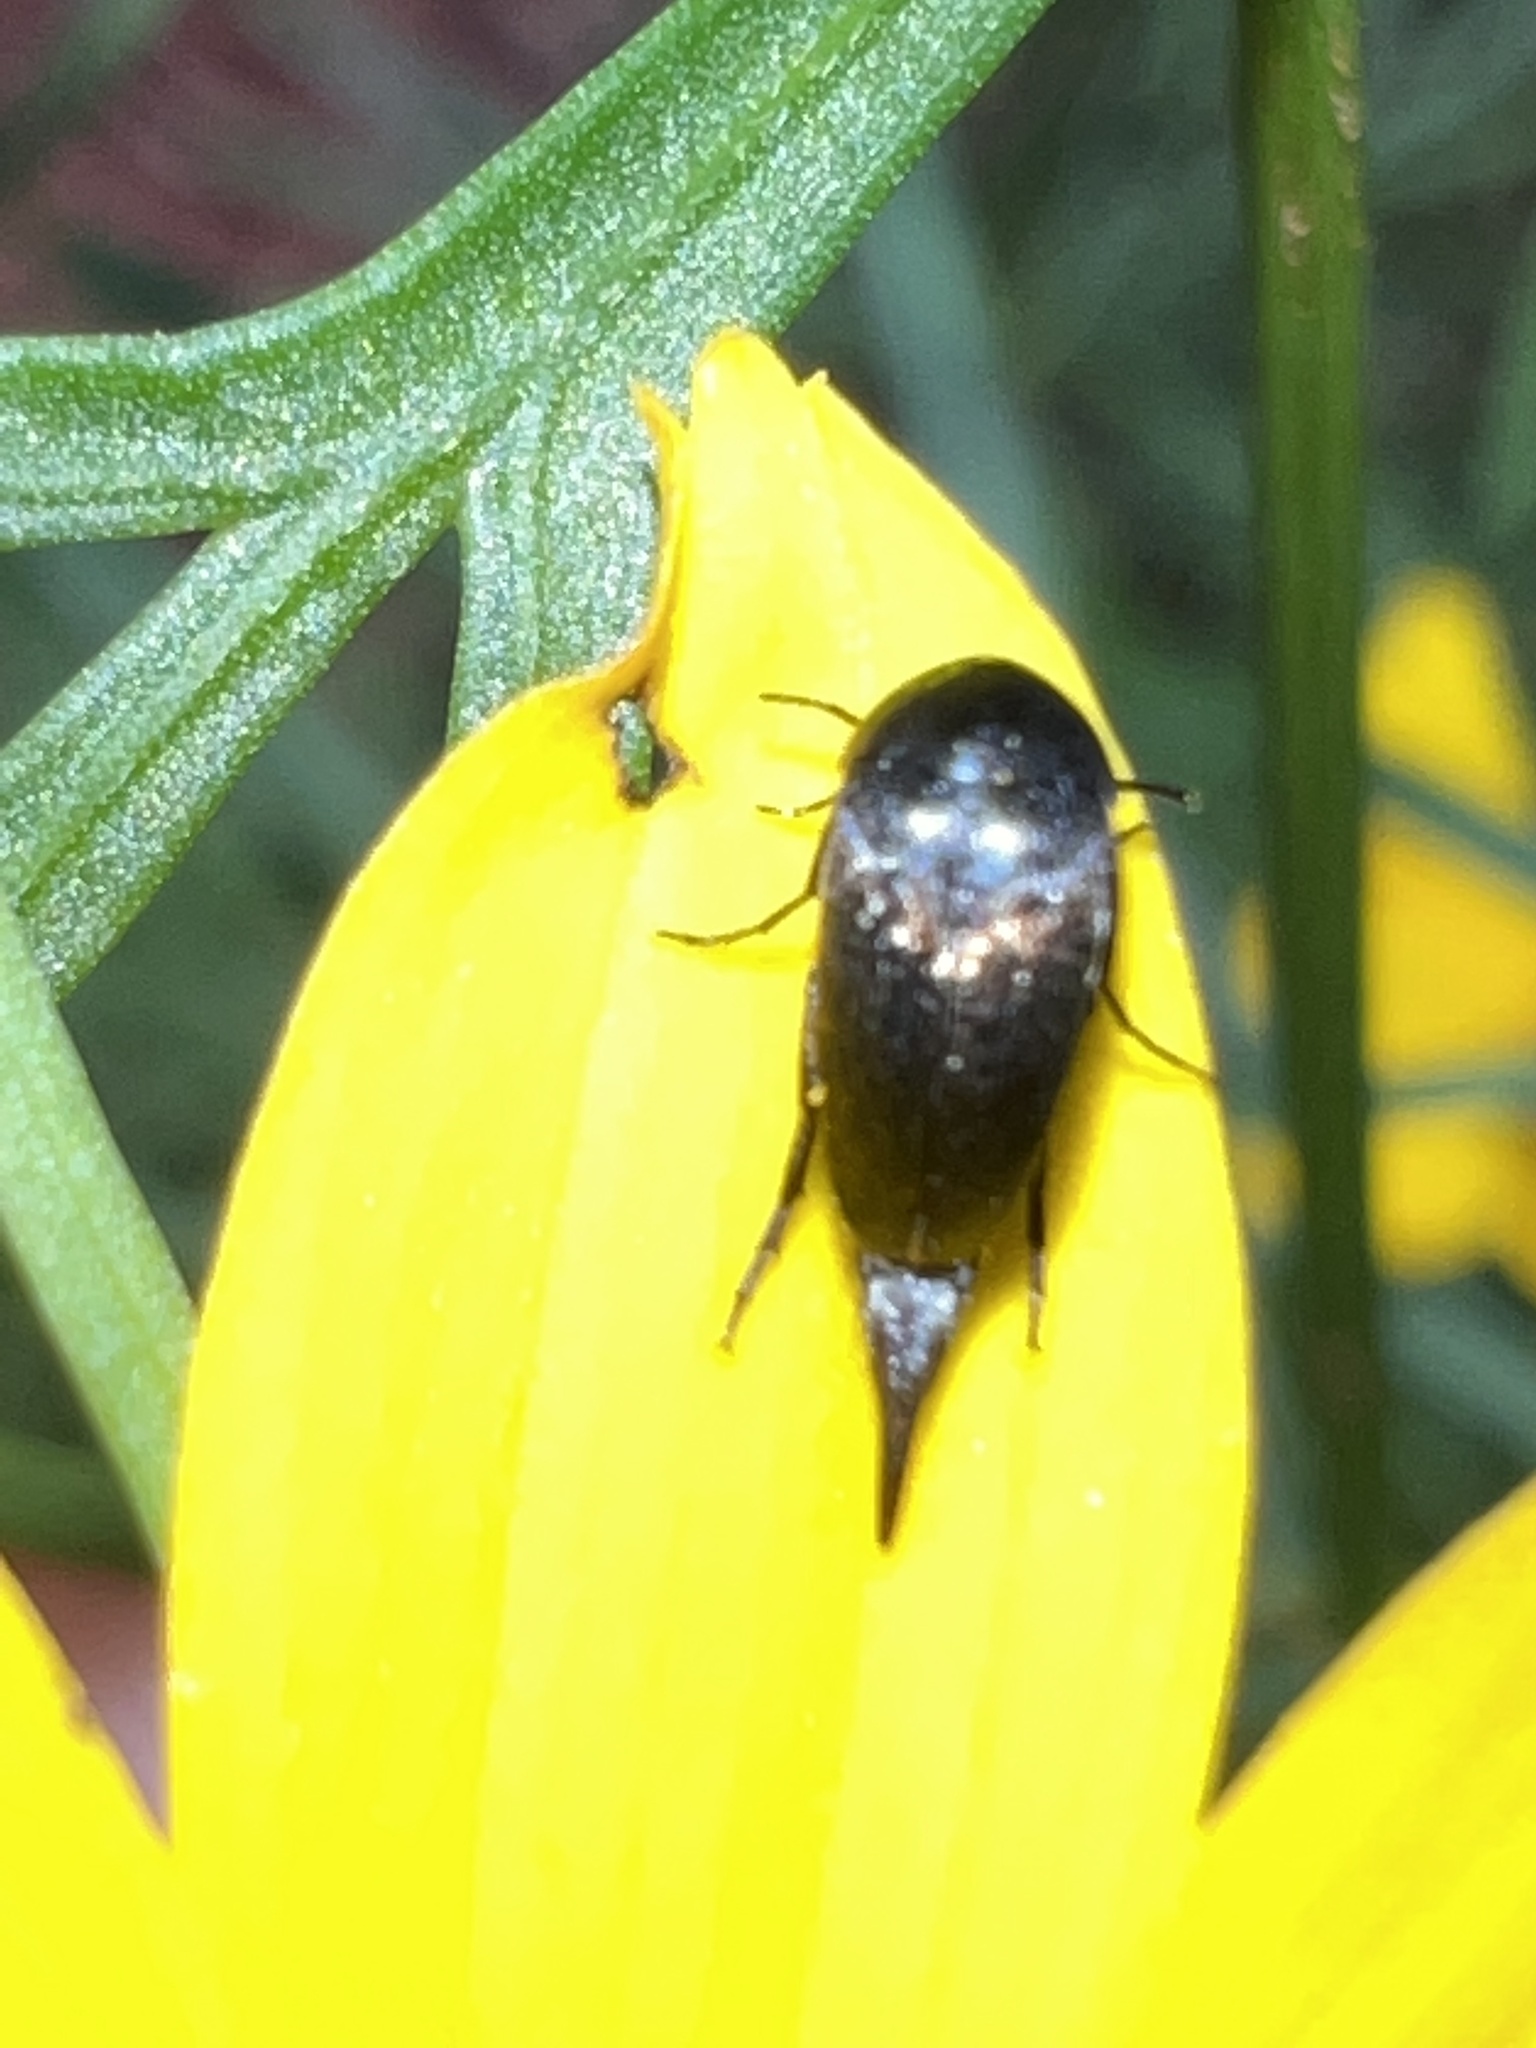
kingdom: Animalia
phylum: Arthropoda
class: Insecta
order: Coleoptera
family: Mordellidae
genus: Mordella
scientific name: Mordella marginata
